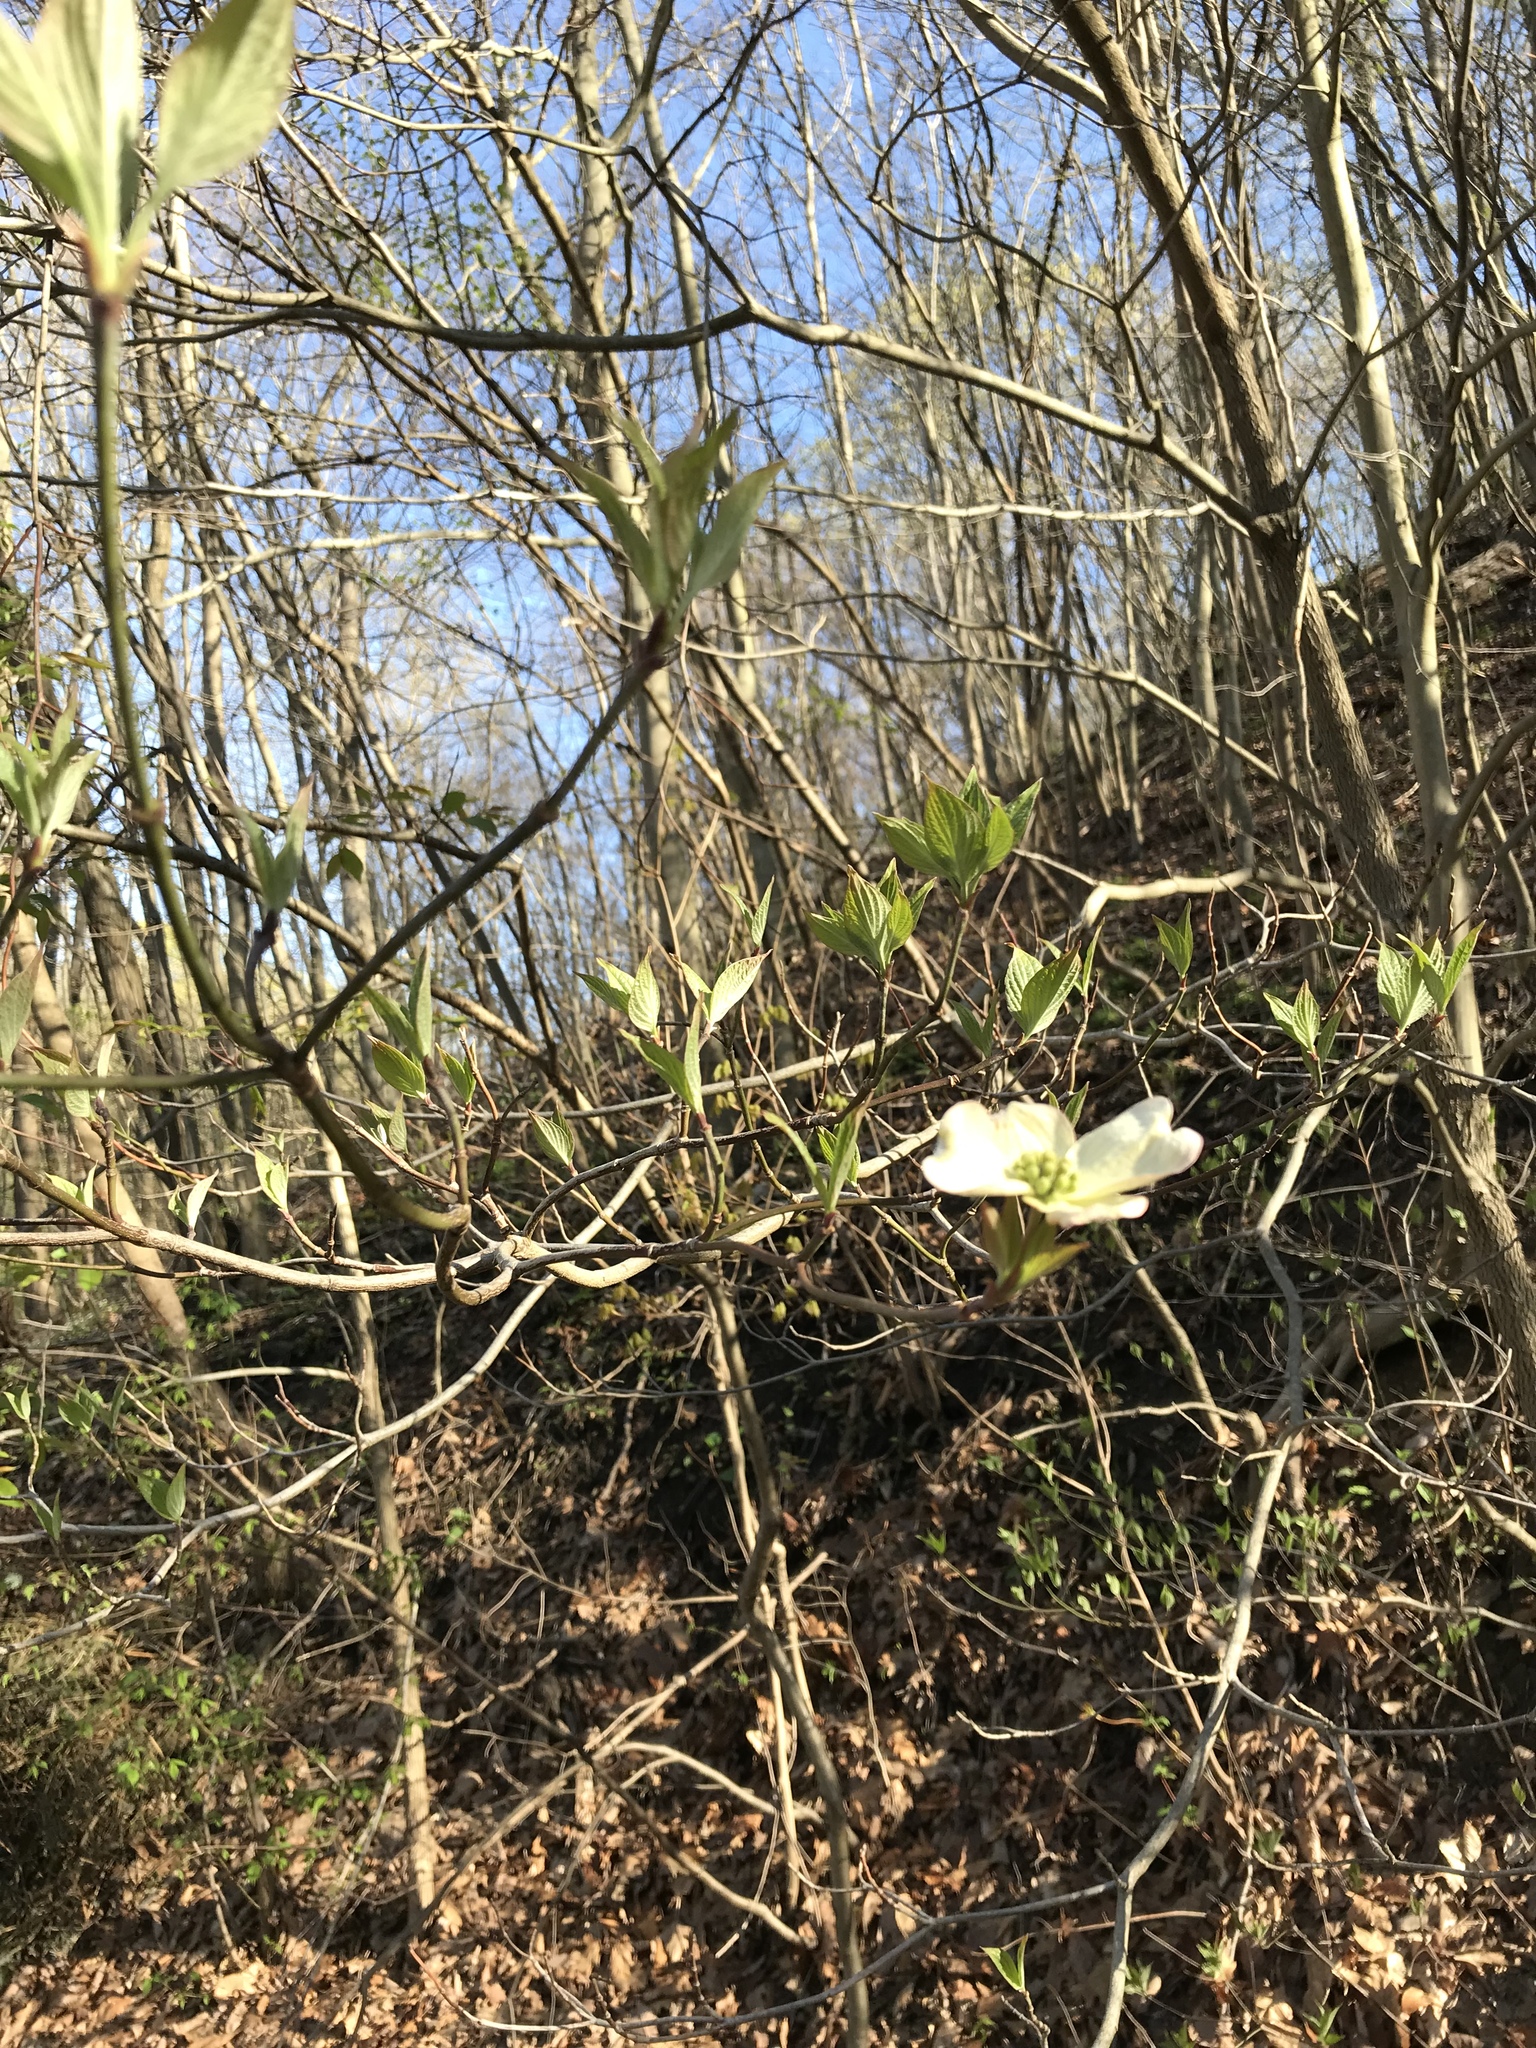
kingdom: Plantae
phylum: Tracheophyta
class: Magnoliopsida
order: Cornales
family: Cornaceae
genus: Cornus
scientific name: Cornus florida
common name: Flowering dogwood
